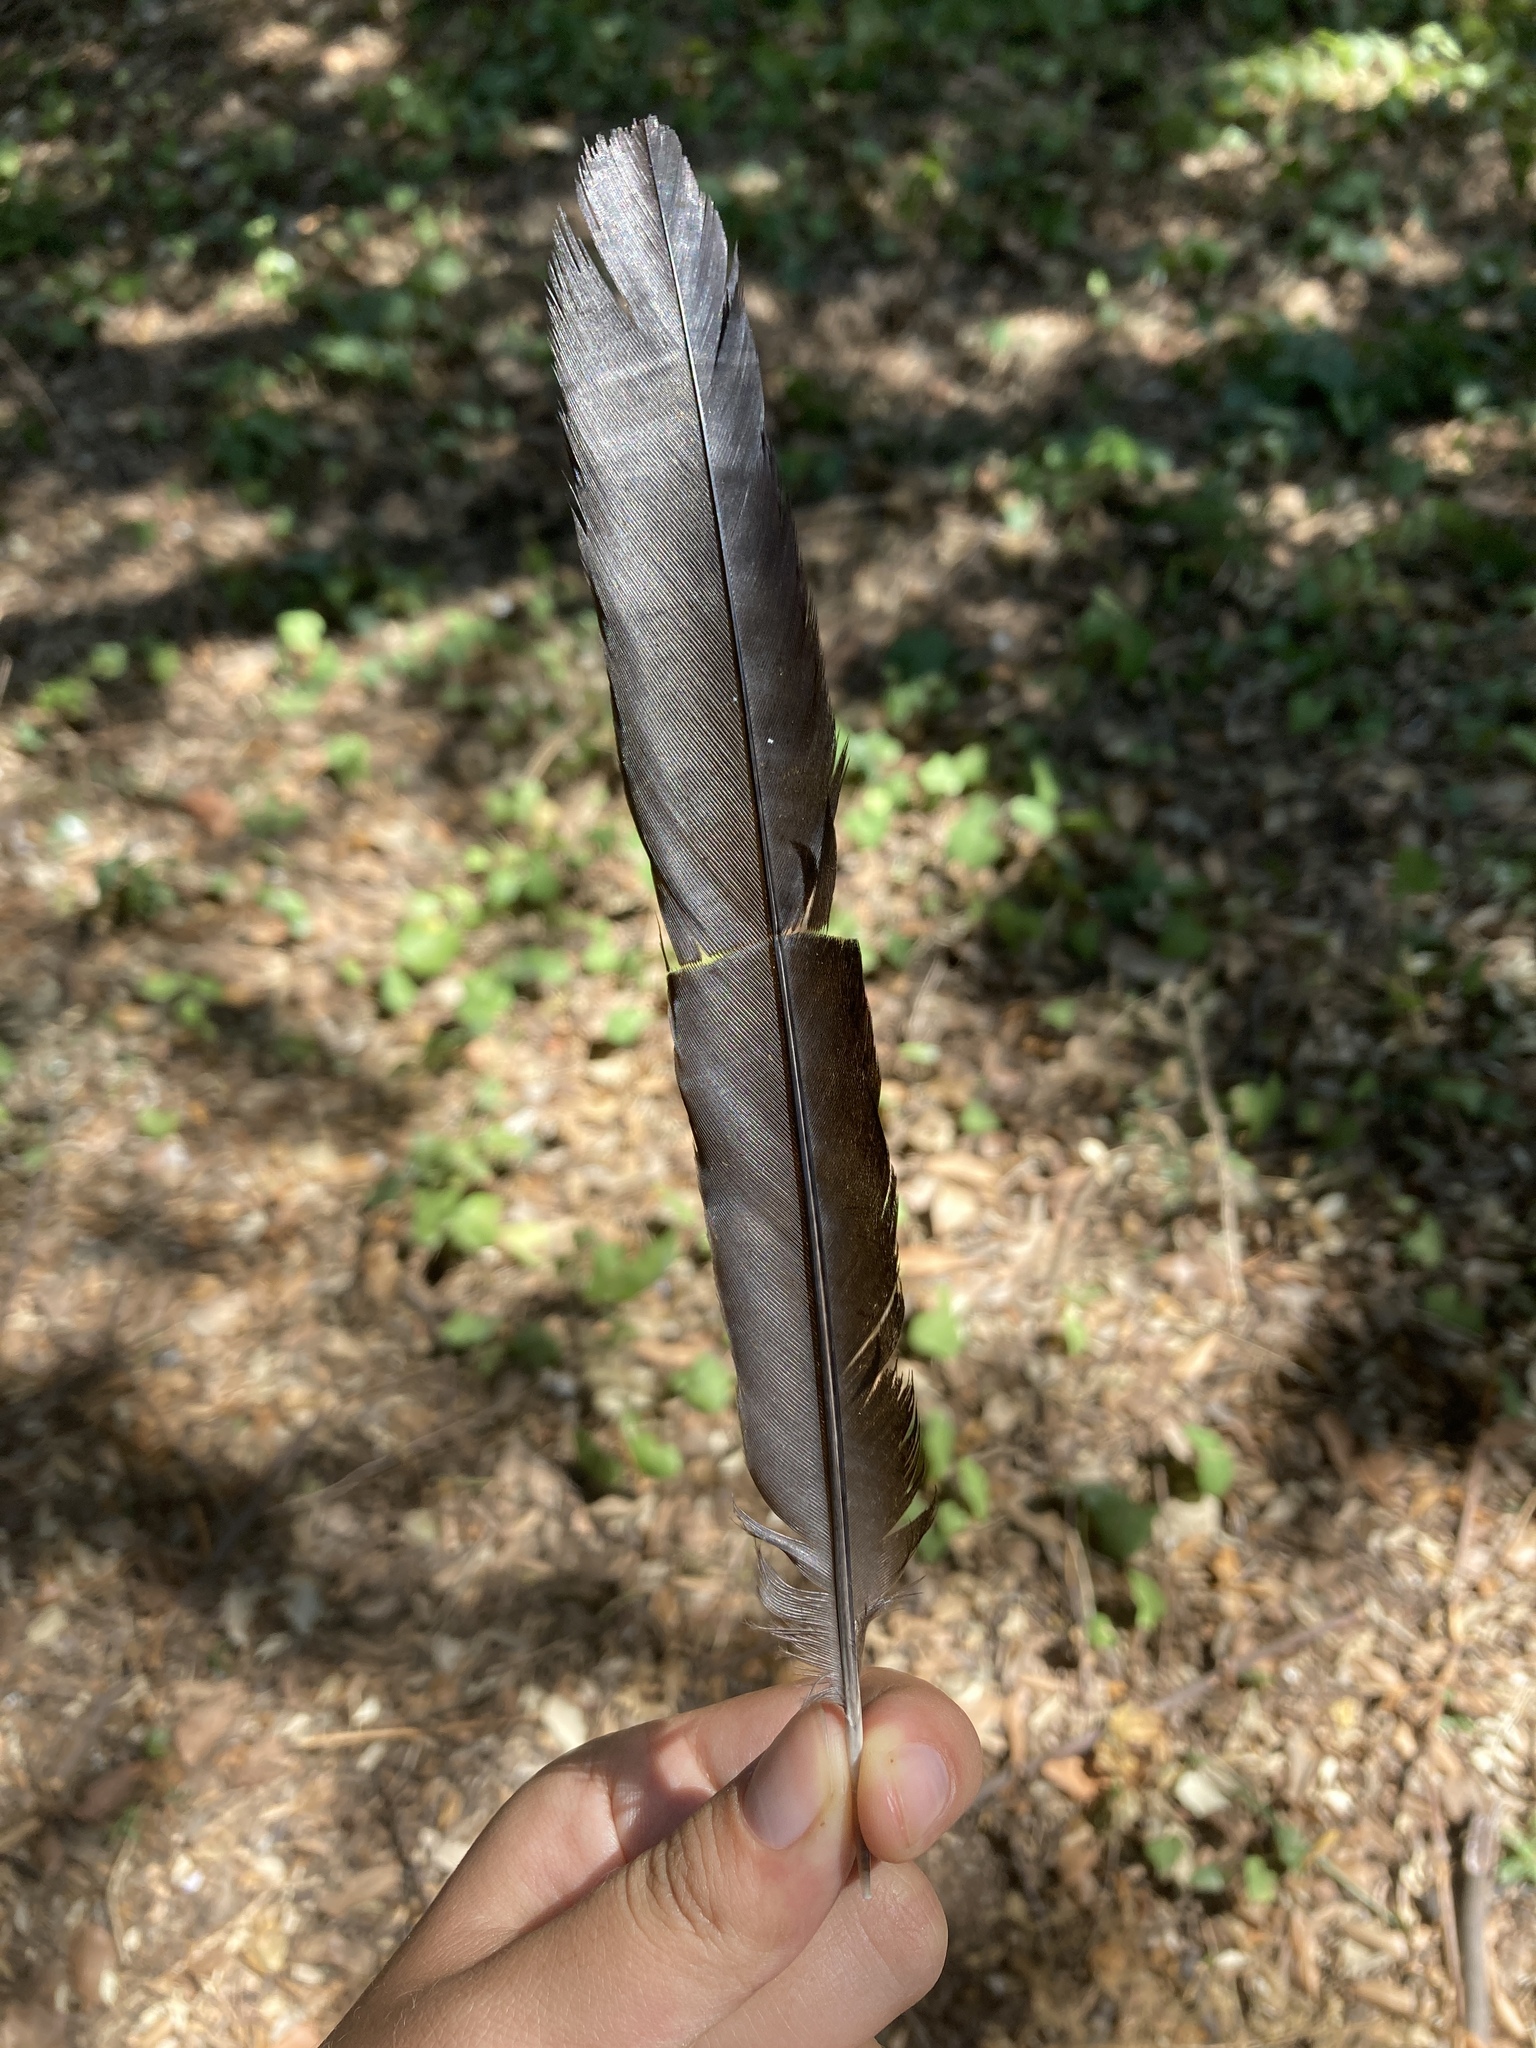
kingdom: Animalia
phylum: Chordata
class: Aves
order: Passeriformes
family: Corvidae
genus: Pica
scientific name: Pica pica
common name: Eurasian magpie
